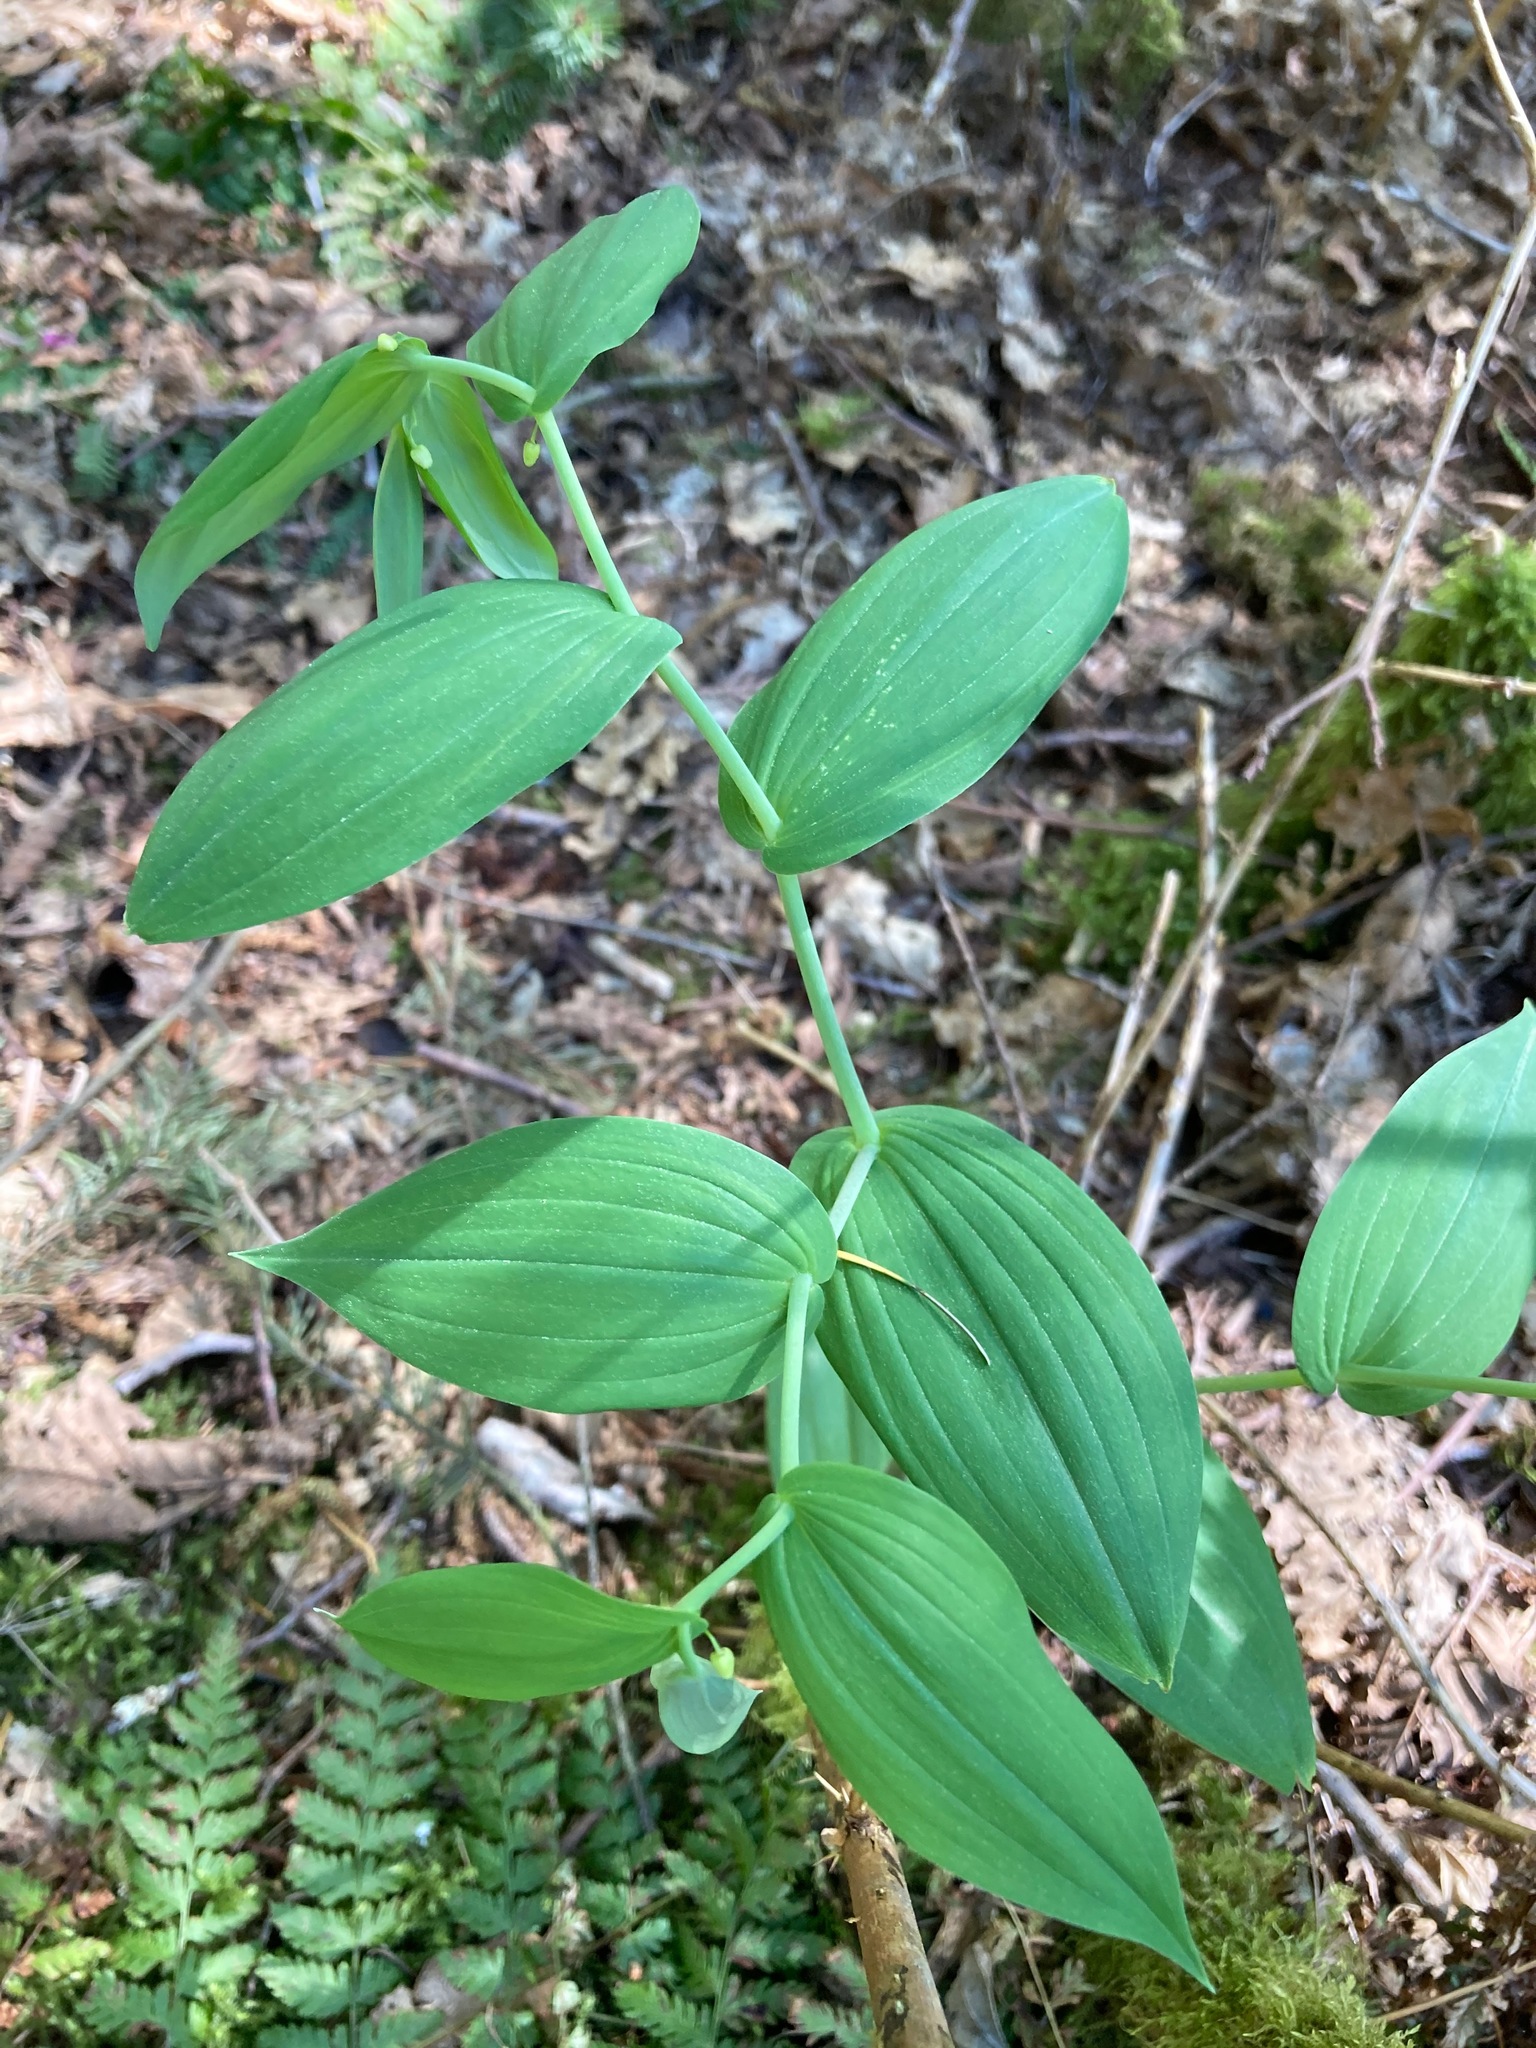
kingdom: Plantae
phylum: Tracheophyta
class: Liliopsida
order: Liliales
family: Liliaceae
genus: Streptopus
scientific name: Streptopus amplexifolius
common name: Clasp twisted stalk
